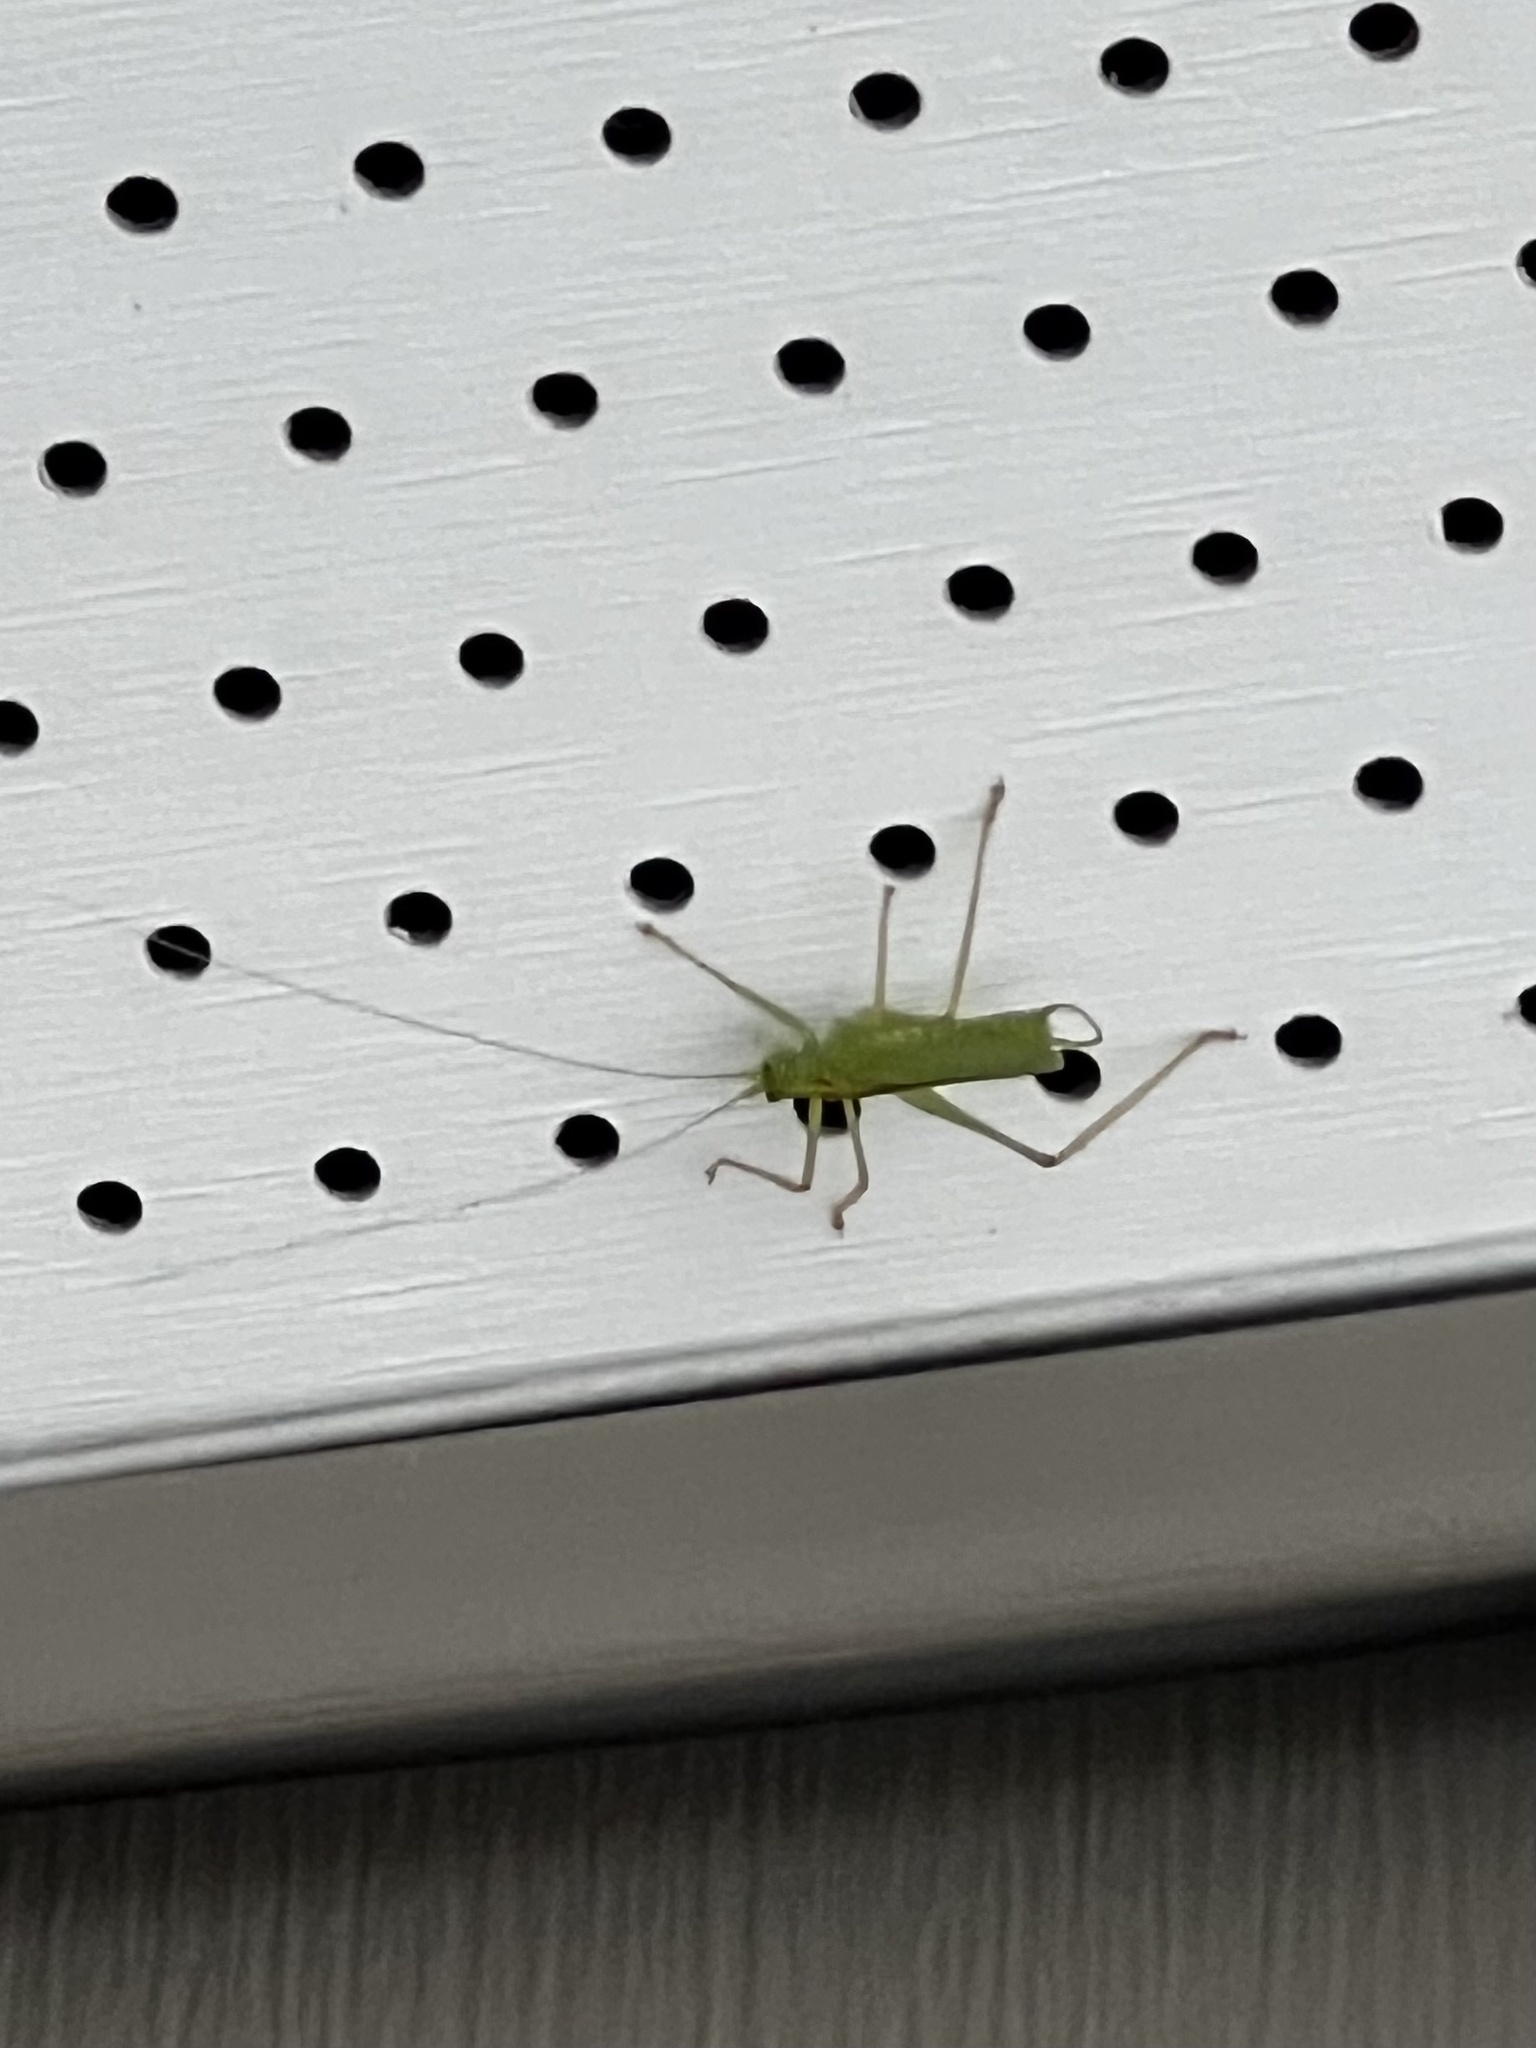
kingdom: Animalia
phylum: Arthropoda
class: Insecta
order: Orthoptera
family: Tettigoniidae
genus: Meconema
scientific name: Meconema thalassinum
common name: Oak bush-cricket
